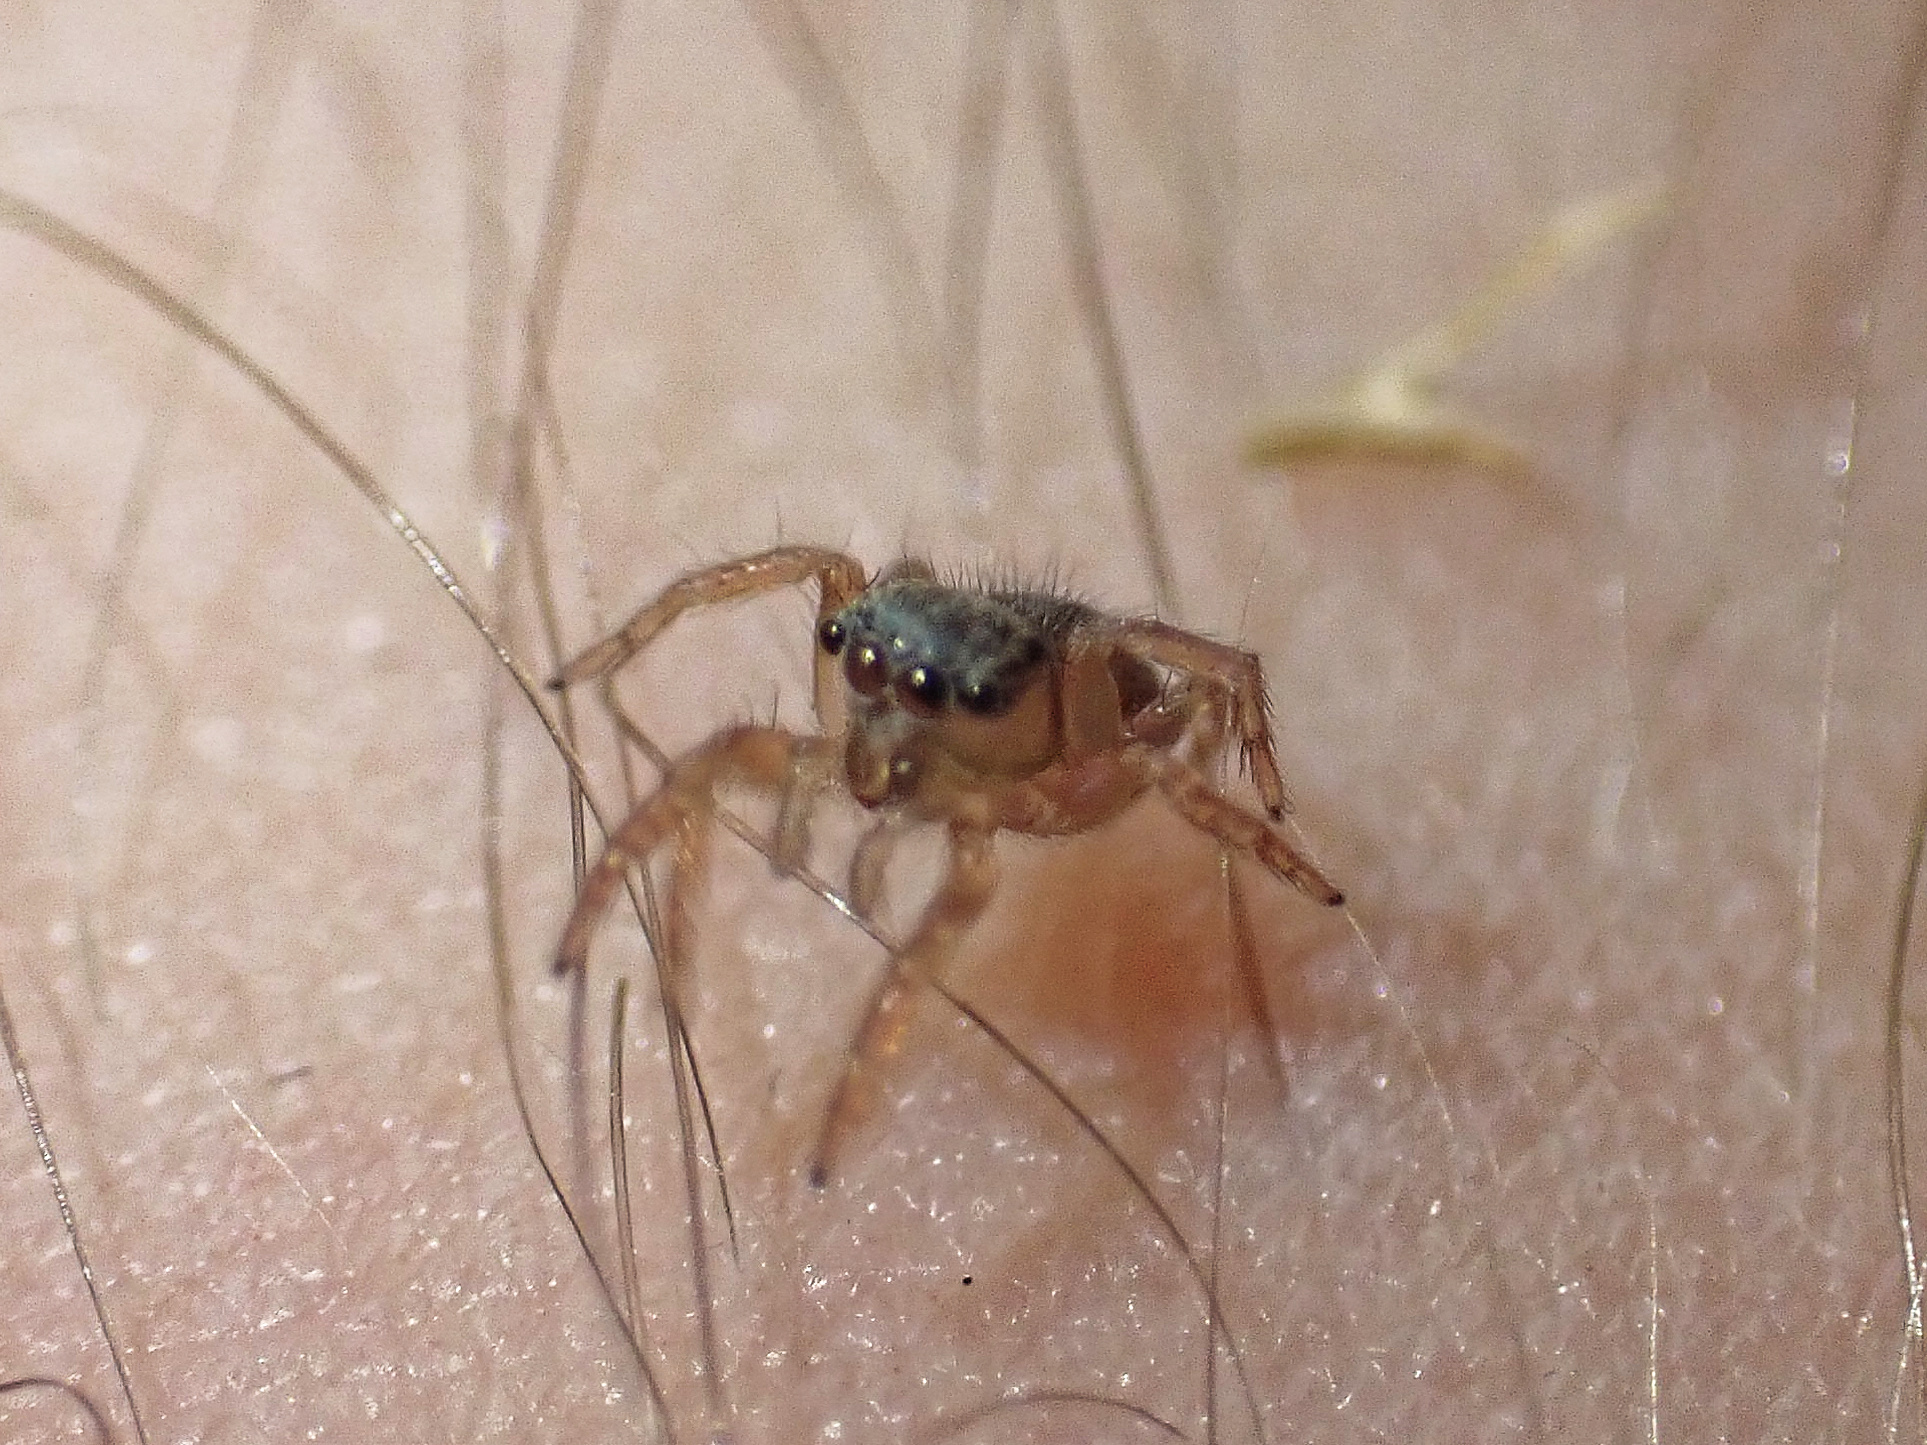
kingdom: Animalia
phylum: Arthropoda
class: Arachnida
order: Araneae
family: Salticidae
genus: Saitis
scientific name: Saitis barbipes
